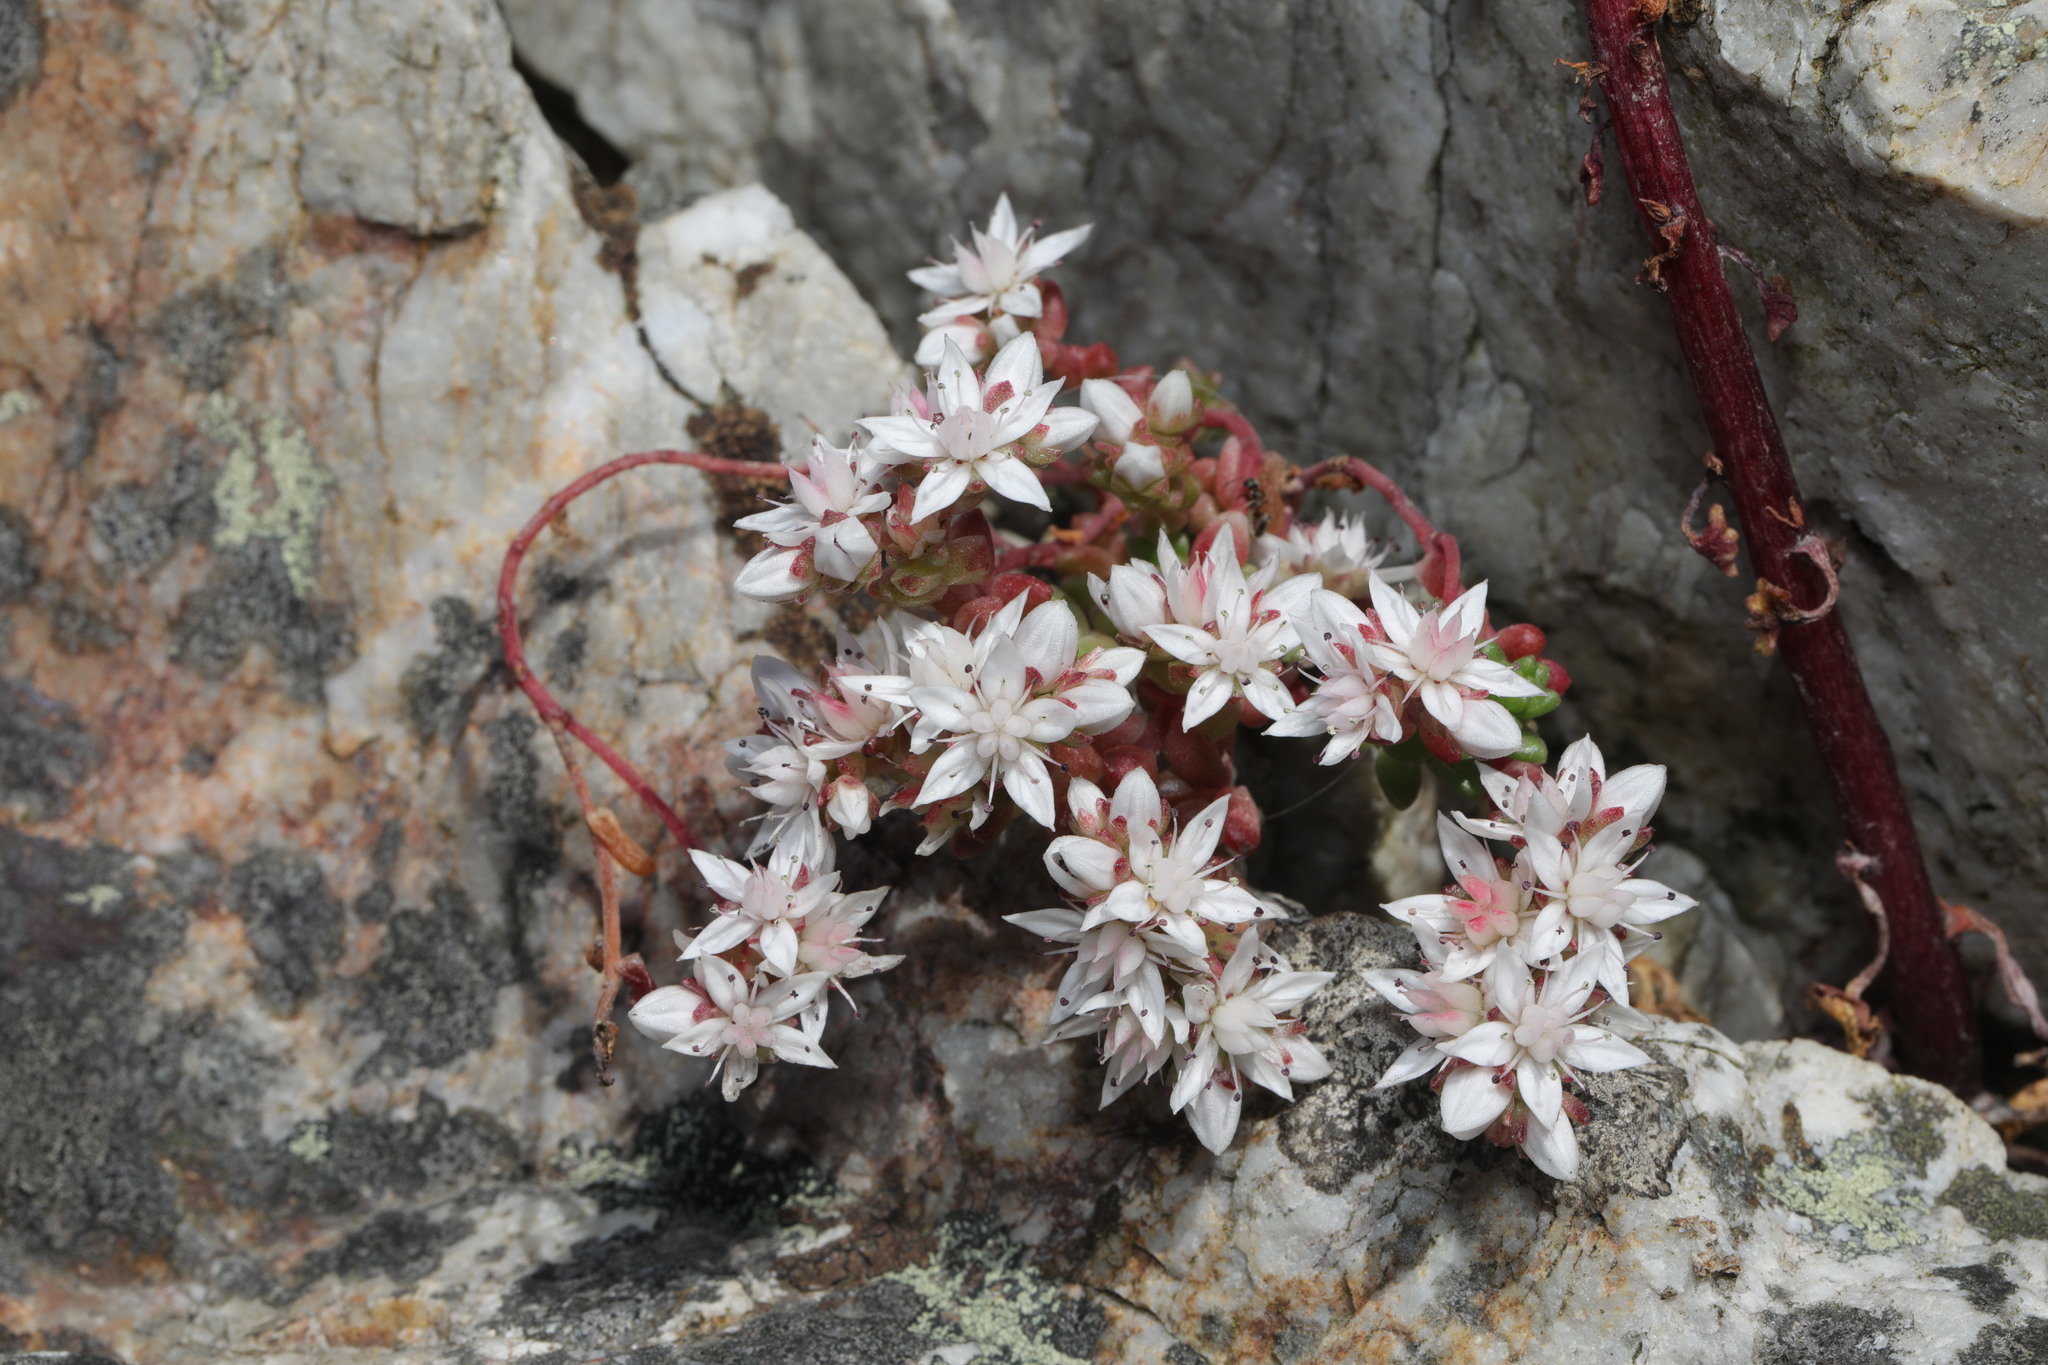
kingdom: Plantae
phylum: Tracheophyta
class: Magnoliopsida
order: Saxifragales
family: Crassulaceae
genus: Sedum
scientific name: Sedum anglicum
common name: English stonecrop
